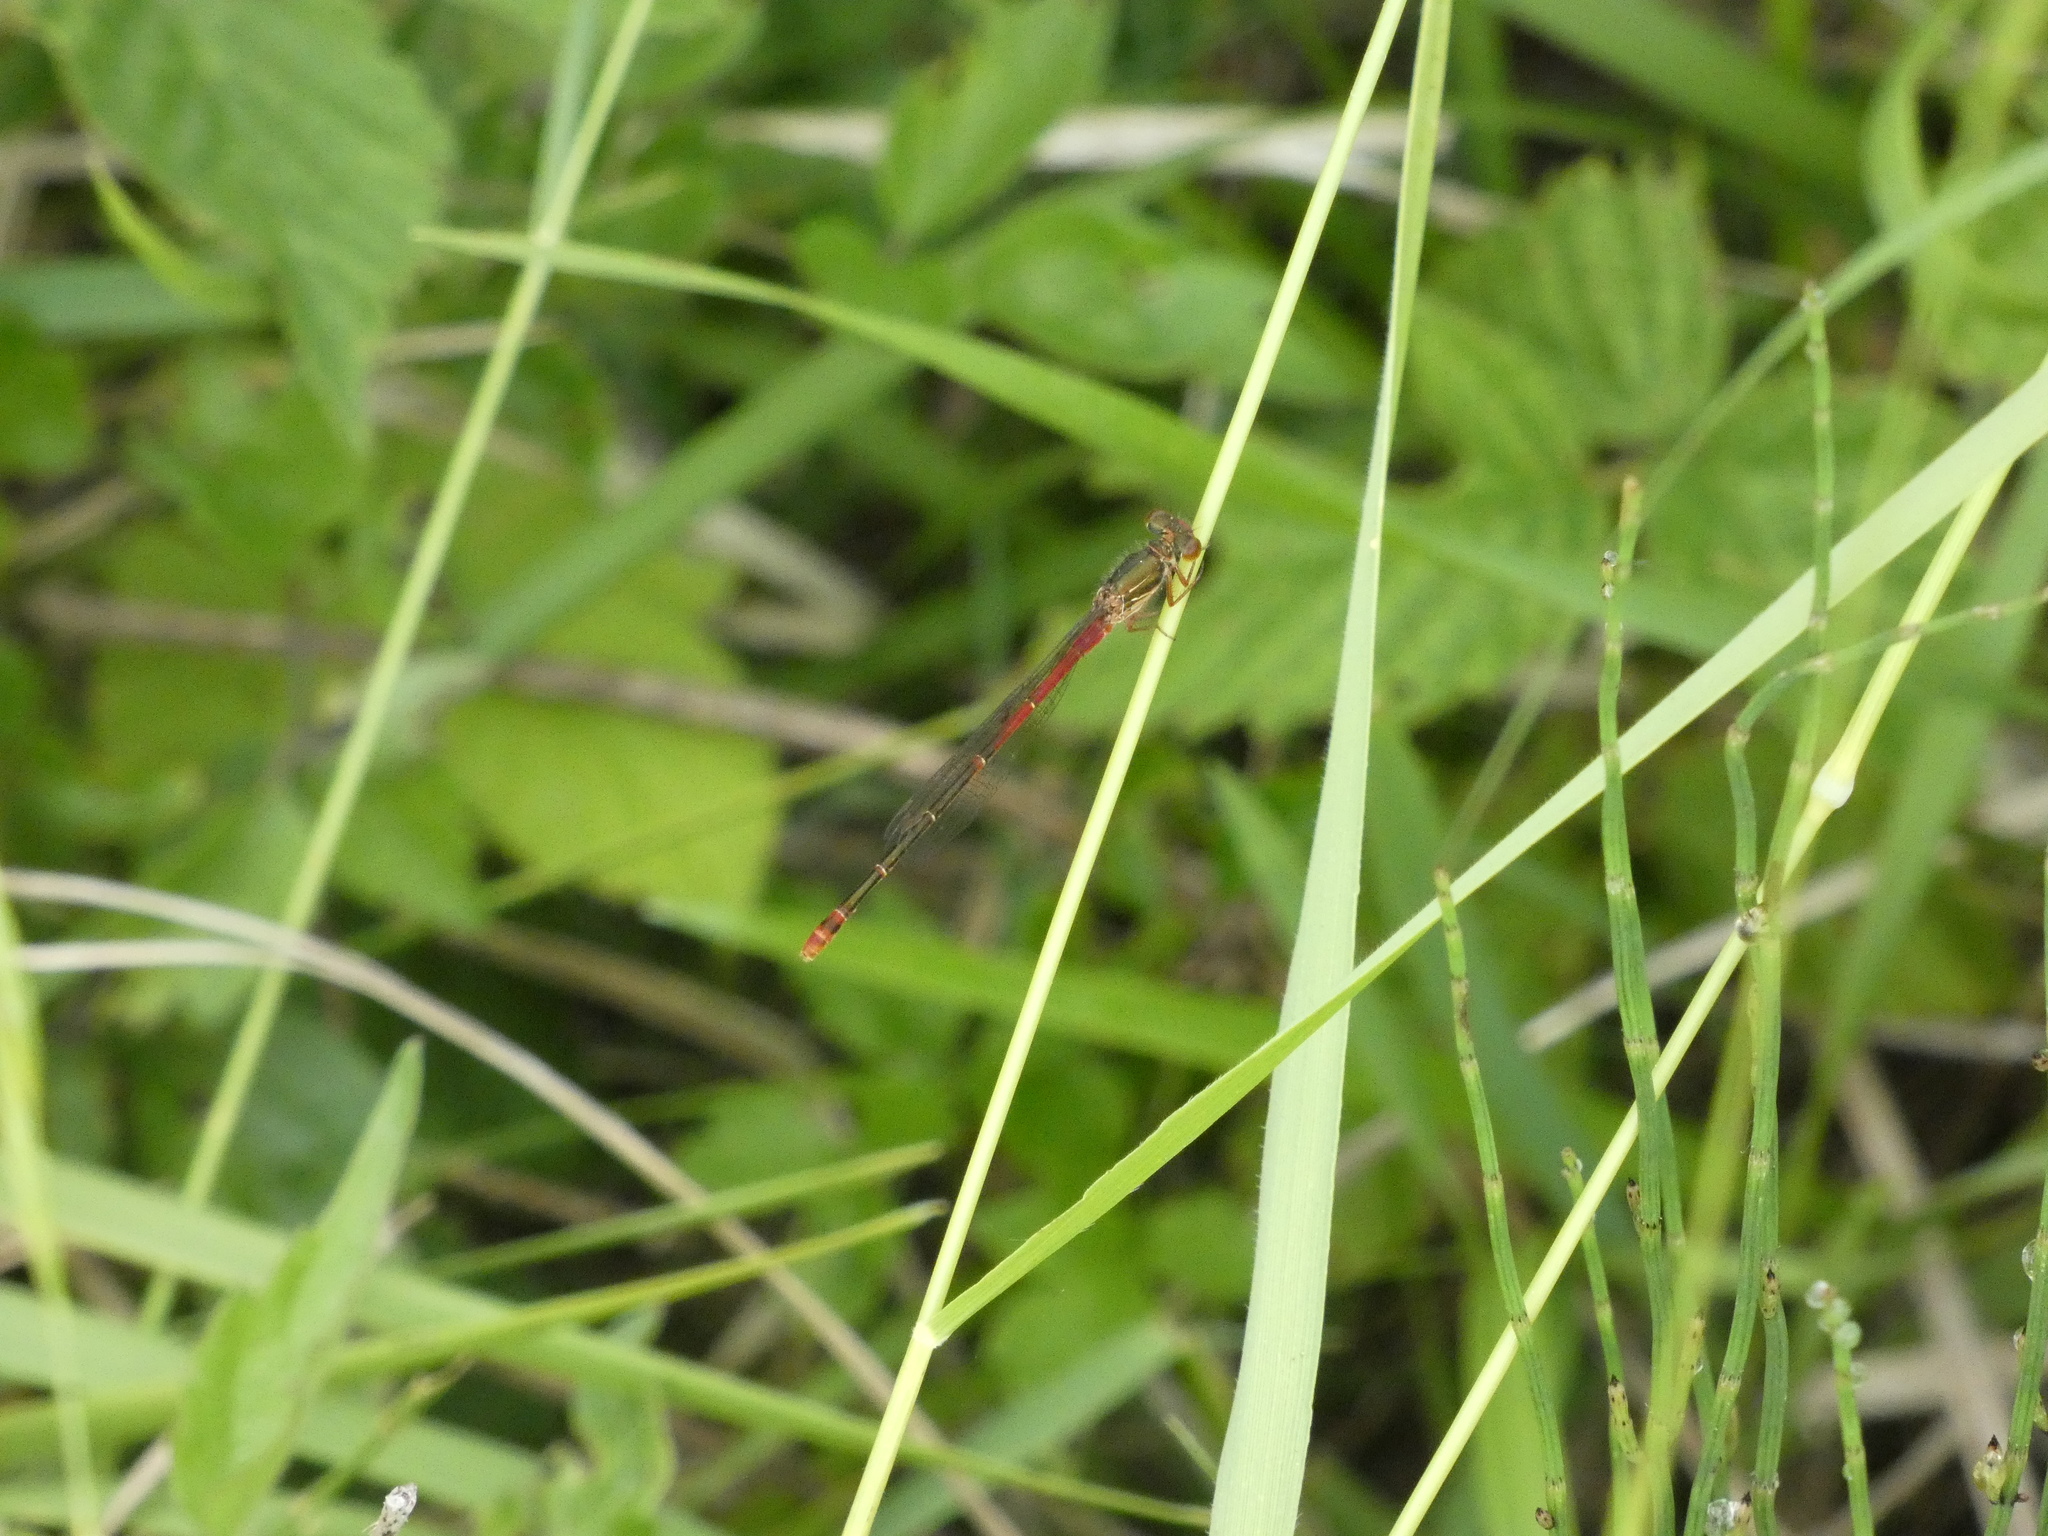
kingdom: Animalia
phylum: Arthropoda
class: Insecta
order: Odonata
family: Coenagrionidae
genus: Ceriagrion
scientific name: Ceriagrion tenellum
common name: Small red damselfly
